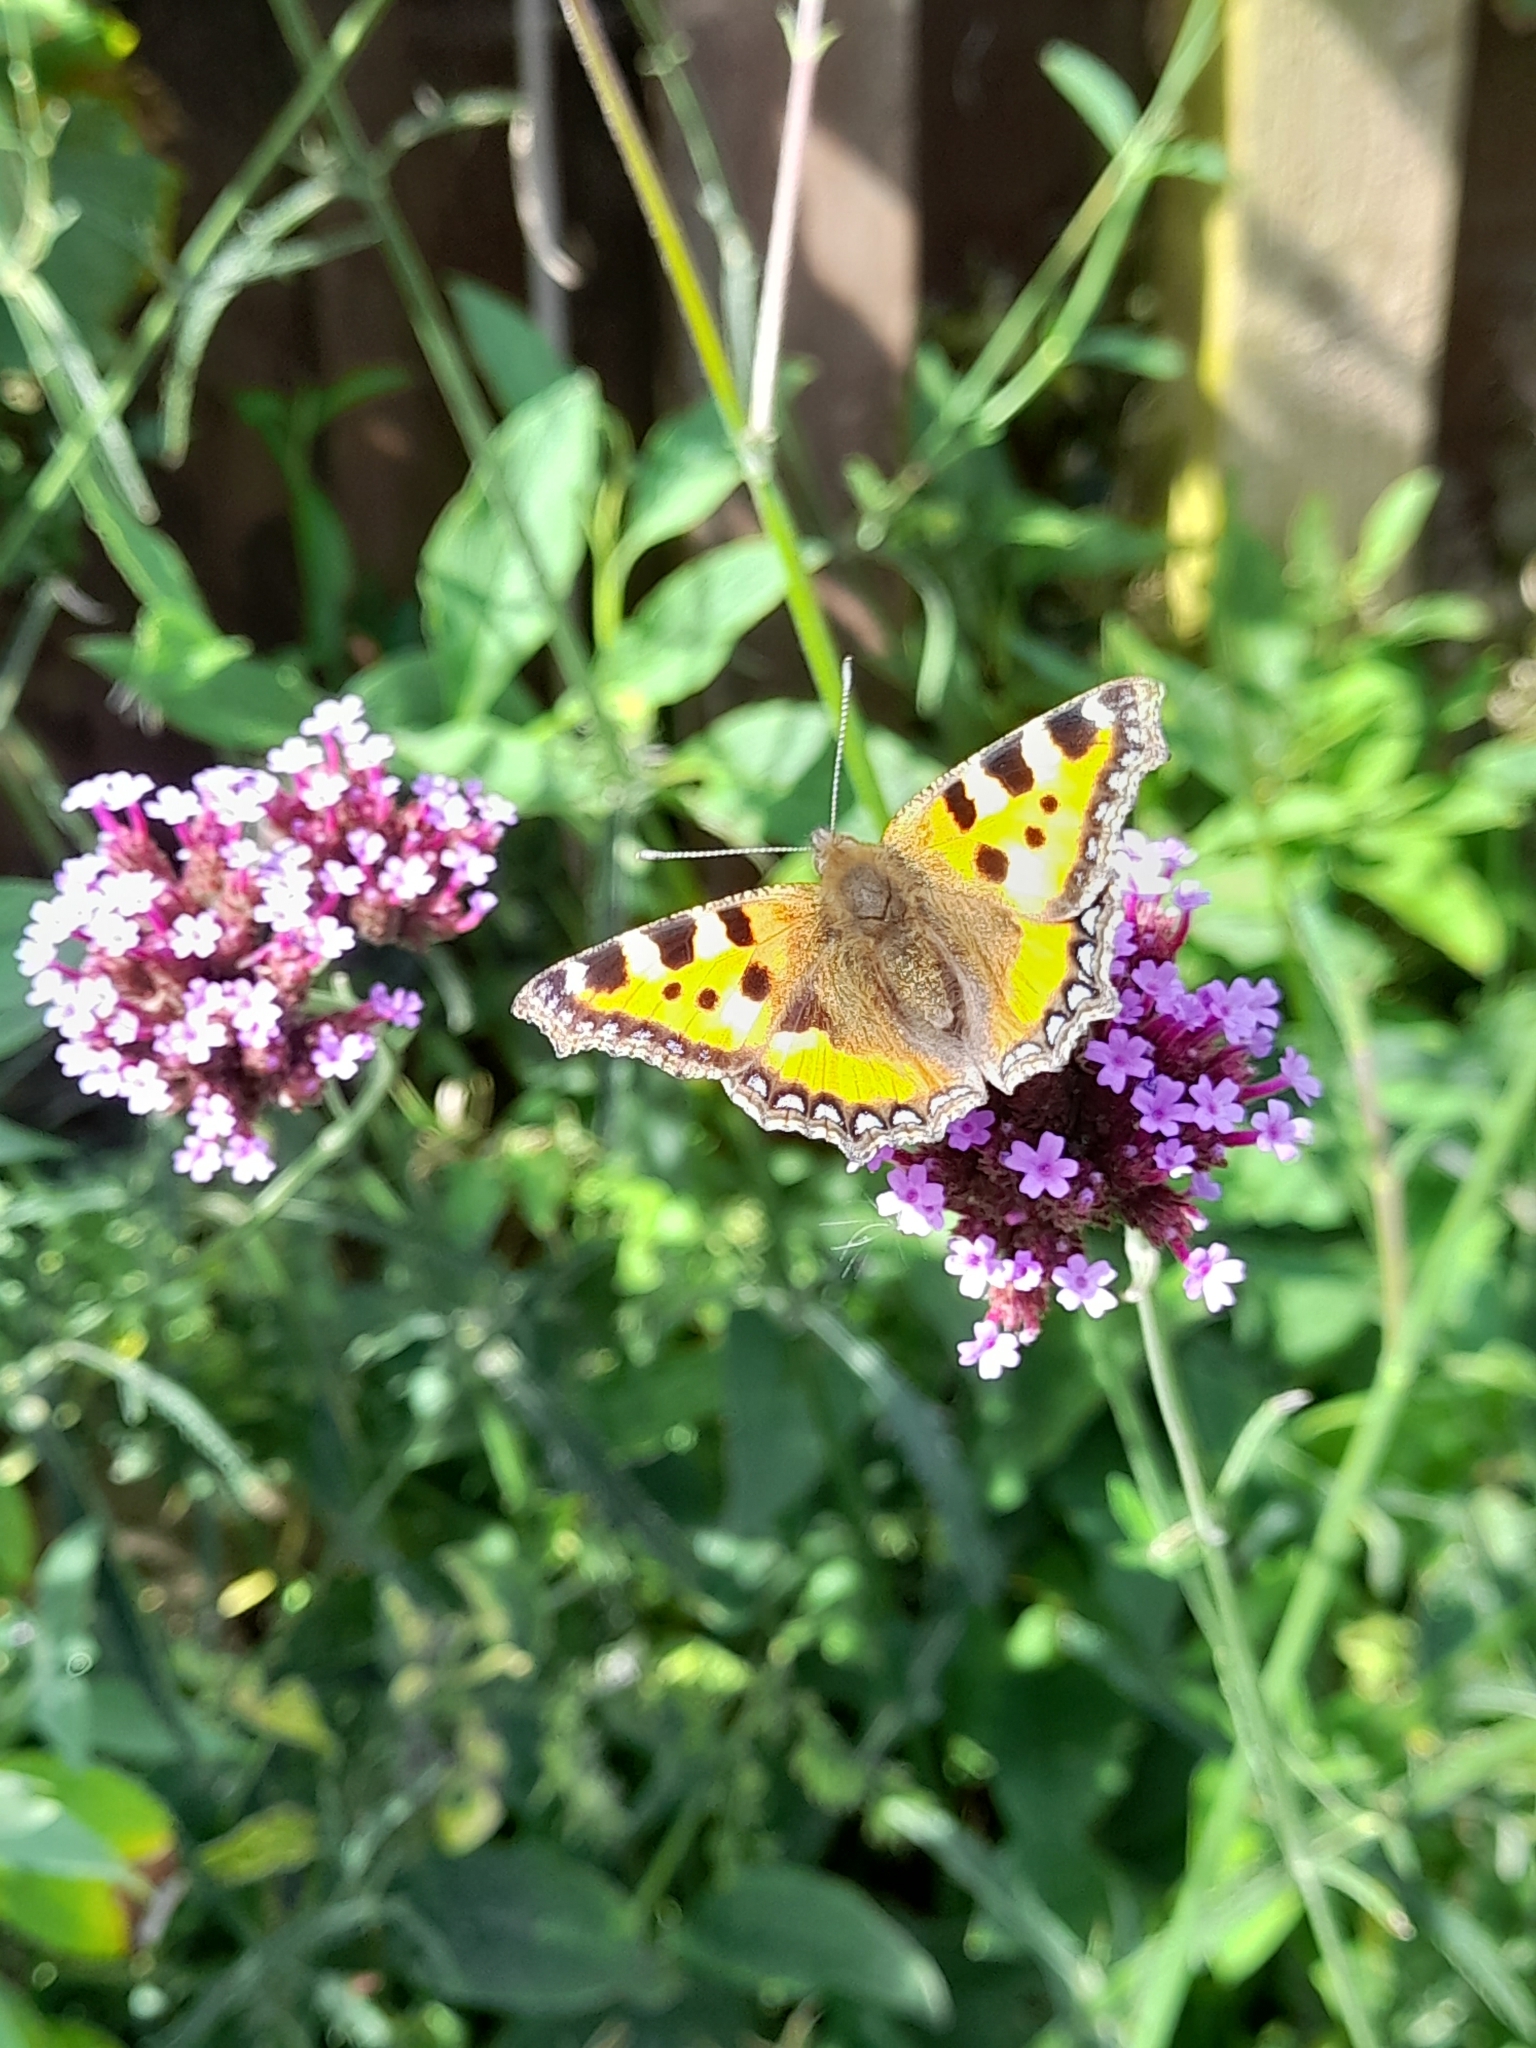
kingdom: Animalia
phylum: Arthropoda
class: Insecta
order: Lepidoptera
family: Nymphalidae
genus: Aglais
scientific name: Aglais urticae
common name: Small tortoiseshell
